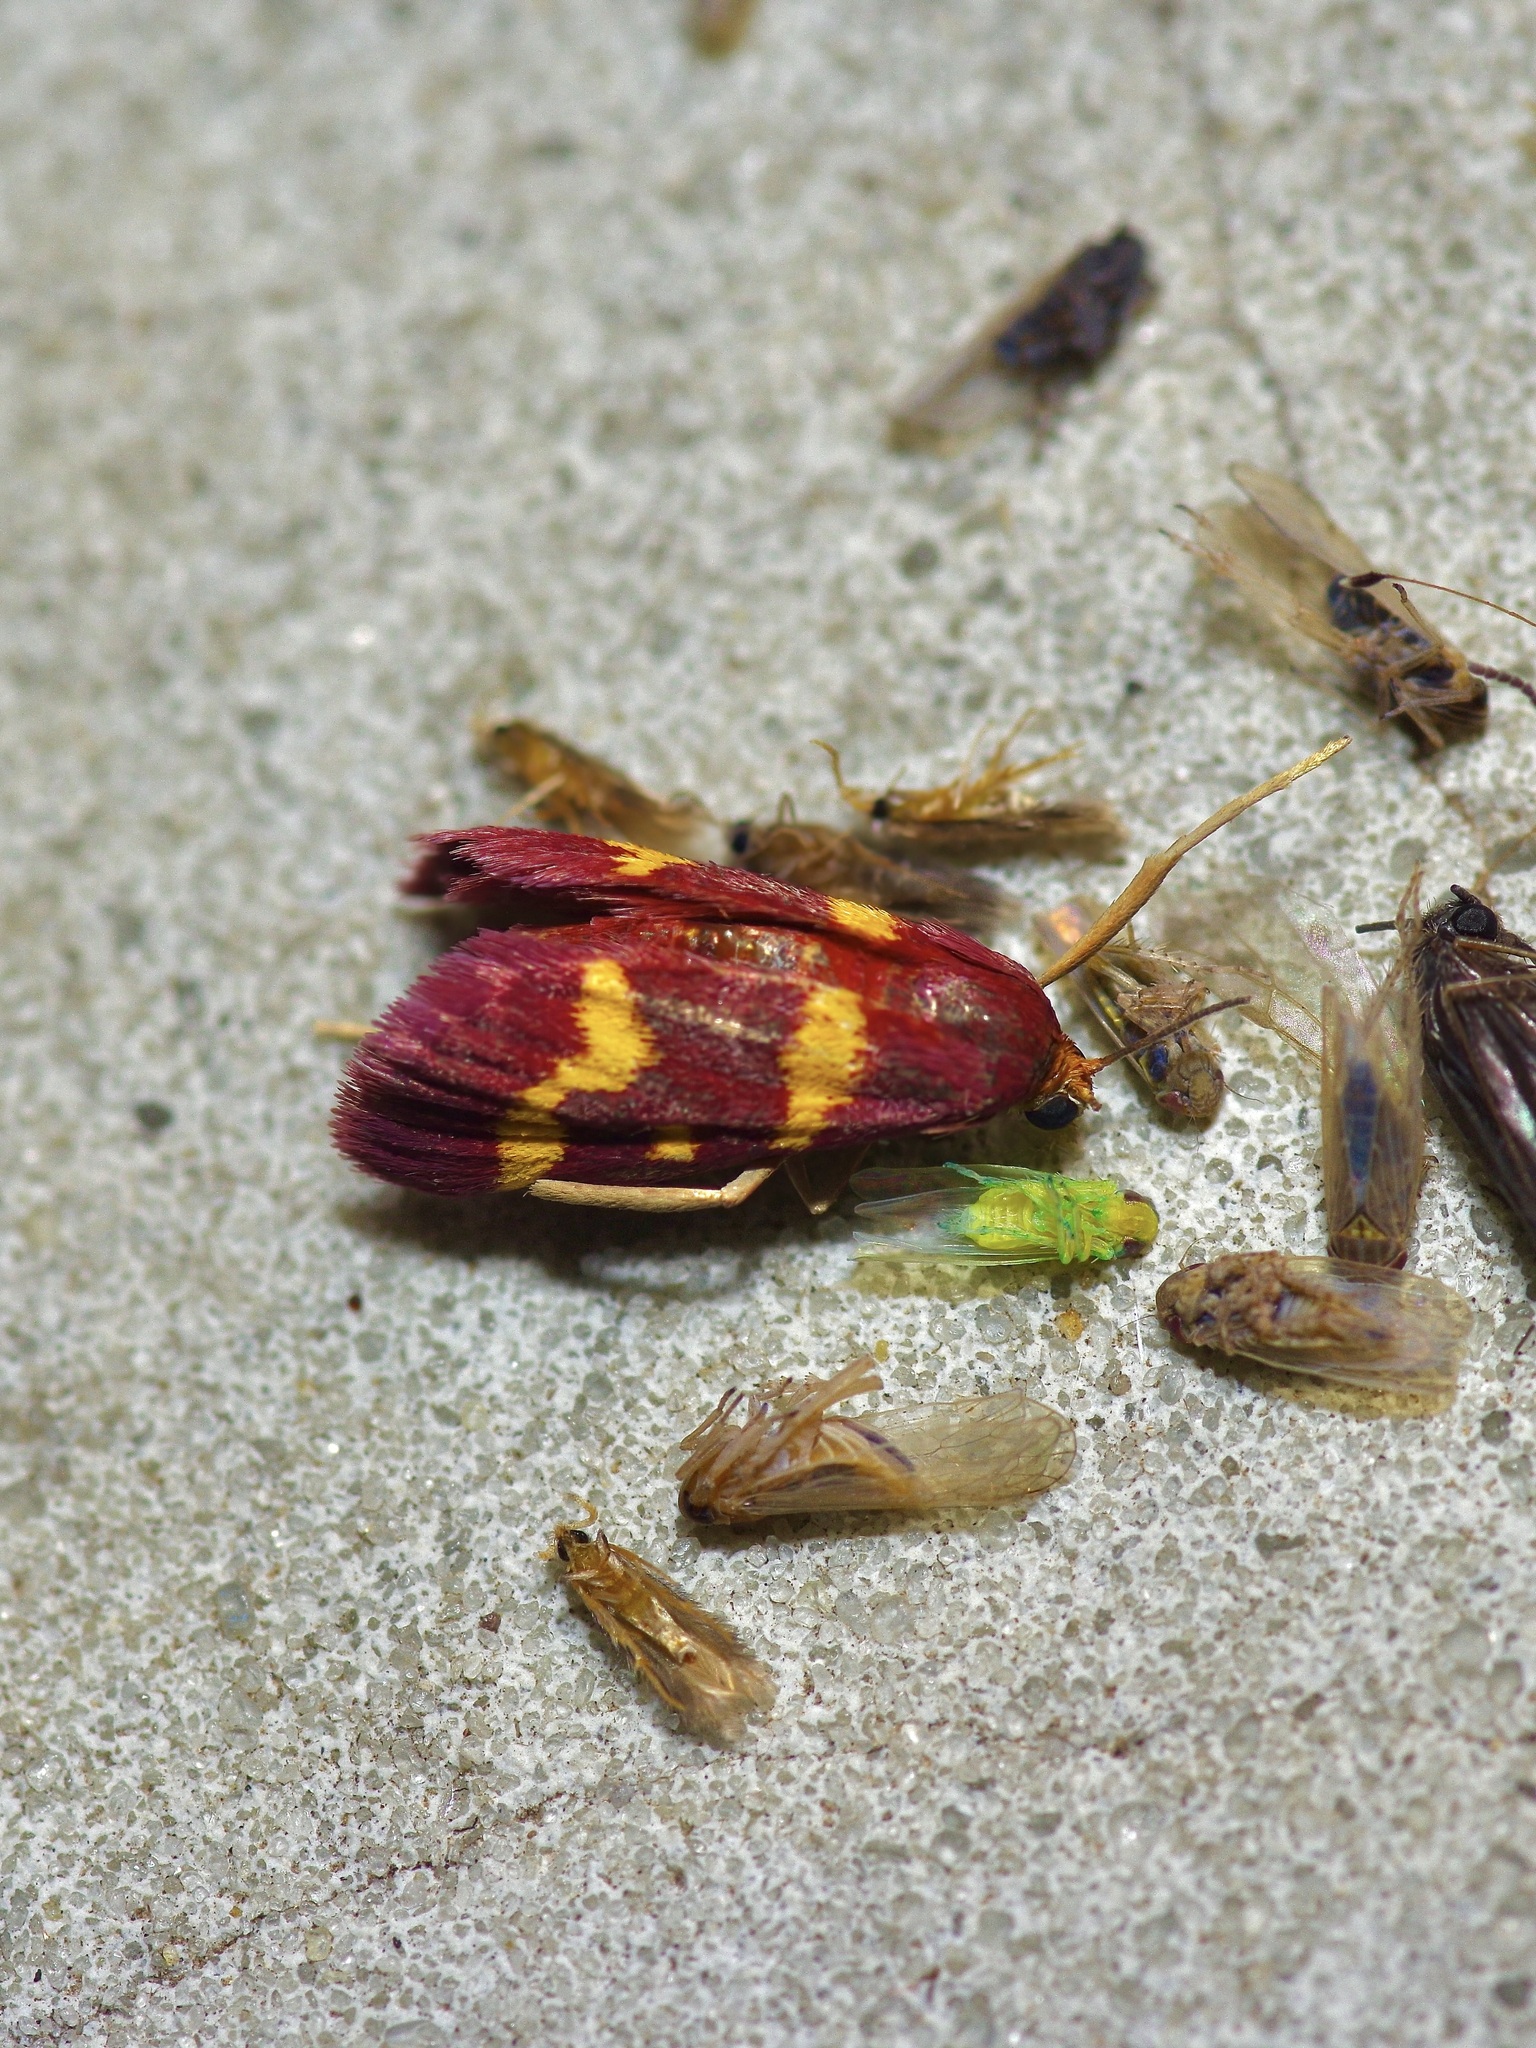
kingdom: Animalia
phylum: Arthropoda
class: Insecta
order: Lepidoptera
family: Crambidae
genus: Pyrausta
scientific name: Pyrausta tyralis
